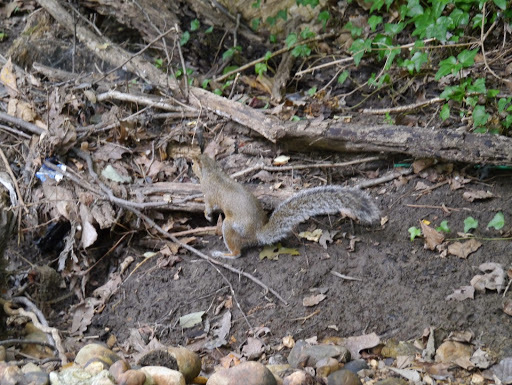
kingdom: Animalia
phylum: Chordata
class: Mammalia
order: Rodentia
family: Sciuridae
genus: Sciurus
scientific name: Sciurus carolinensis
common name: Eastern gray squirrel
